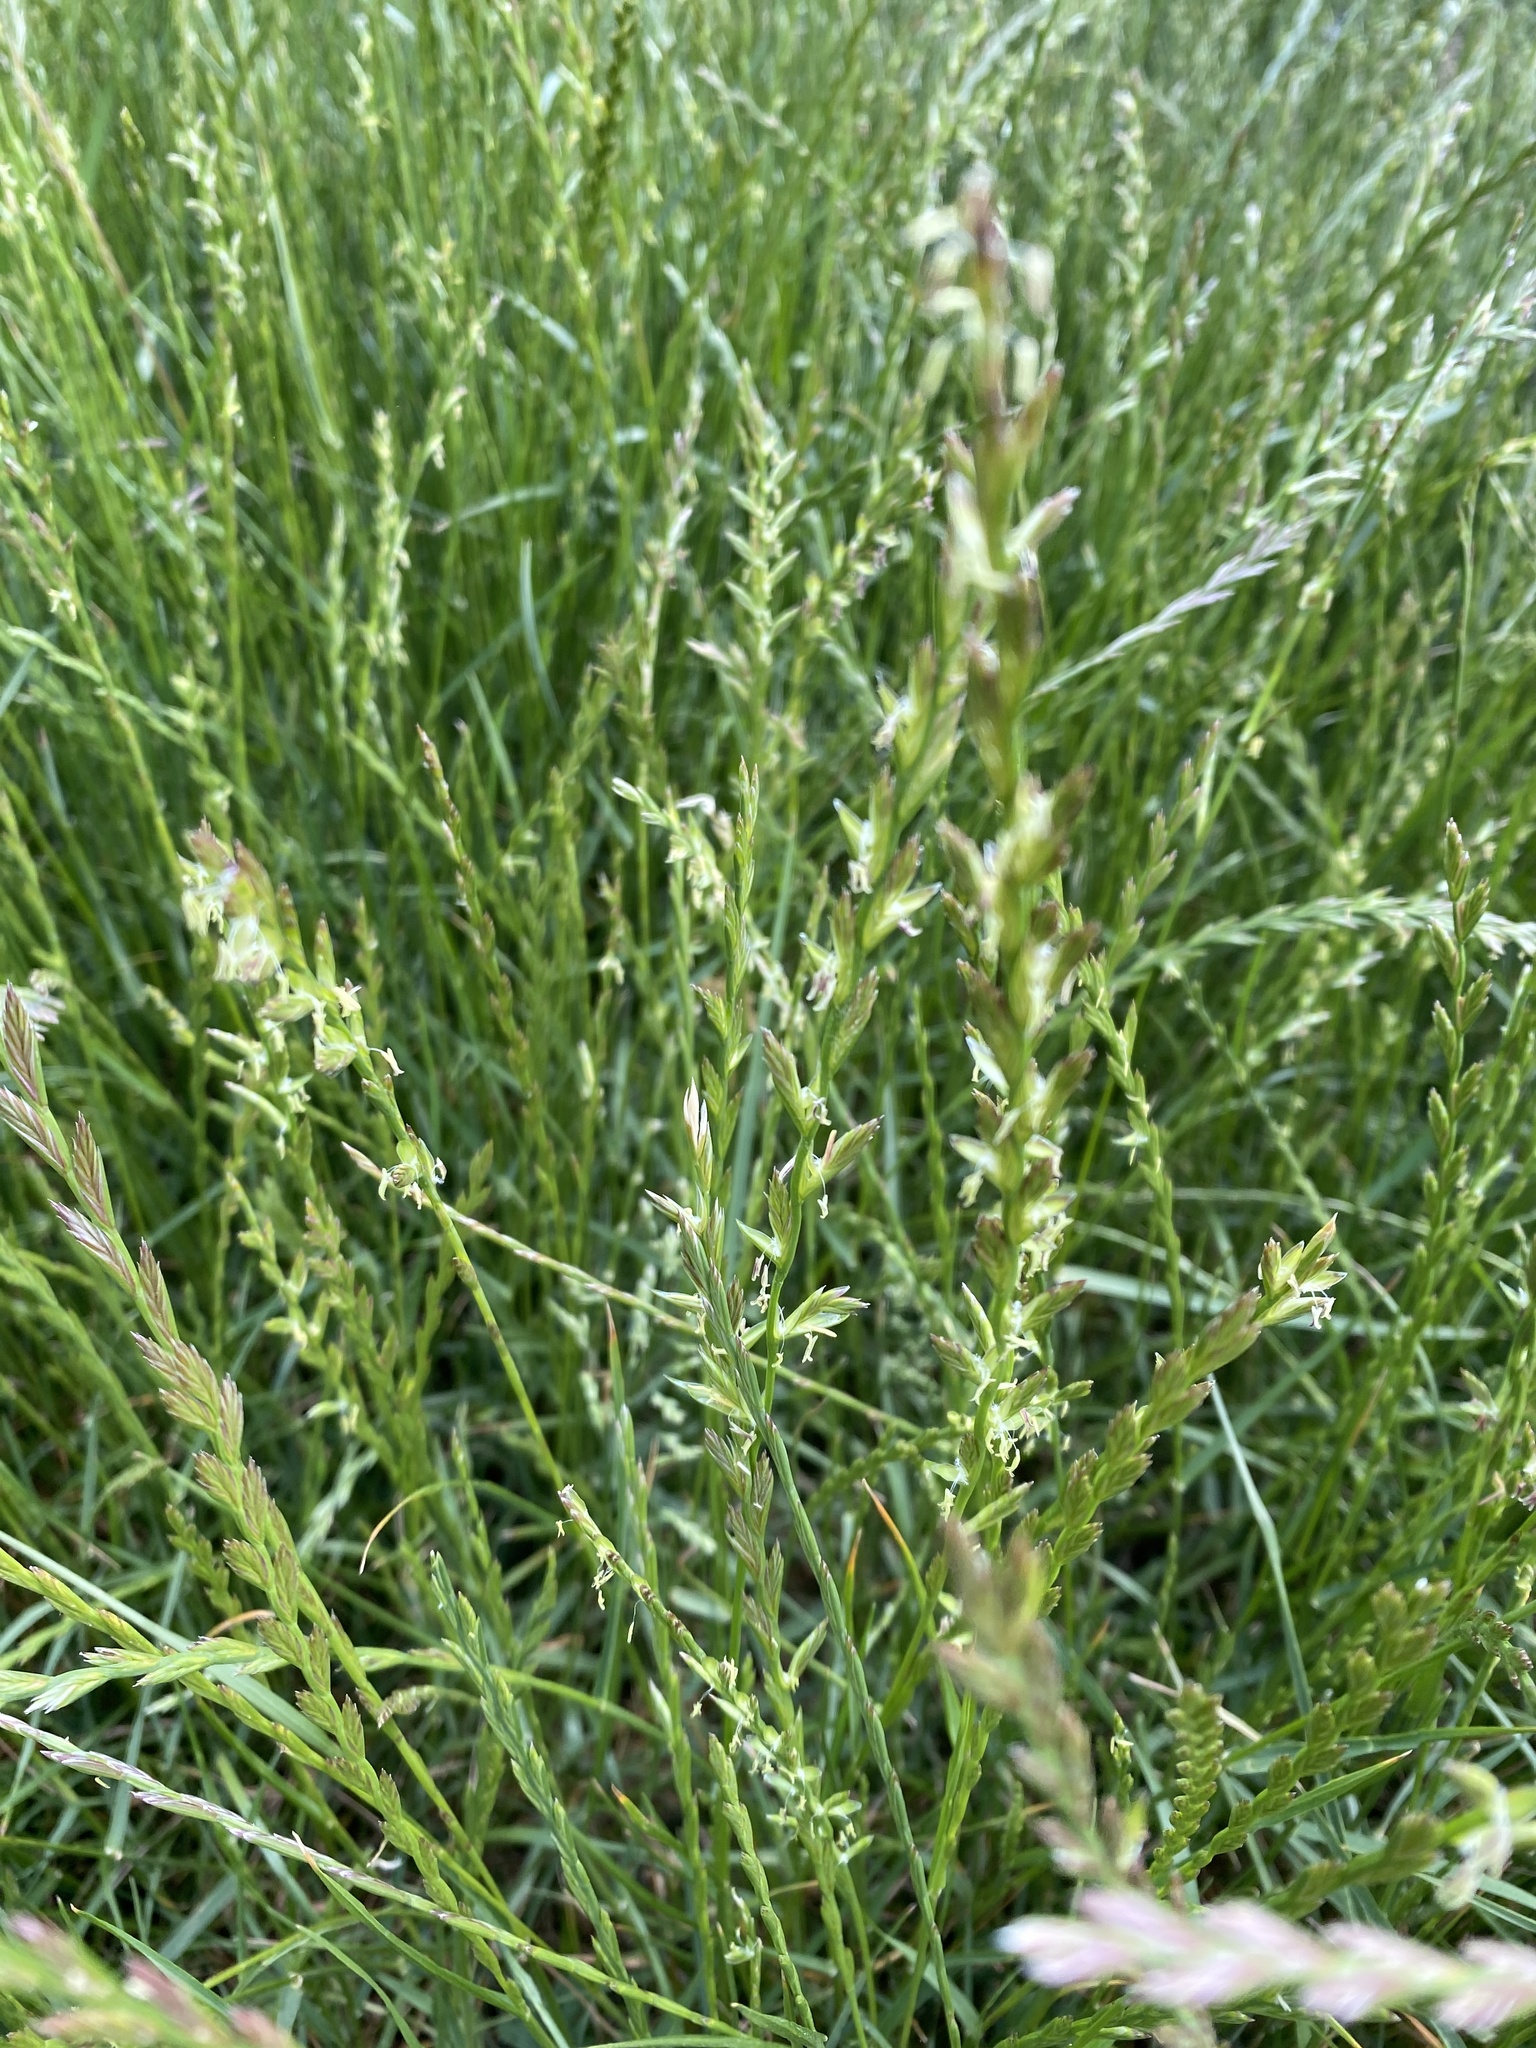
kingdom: Plantae
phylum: Tracheophyta
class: Liliopsida
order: Poales
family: Poaceae
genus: Lolium
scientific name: Lolium perenne
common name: Perennial ryegrass
